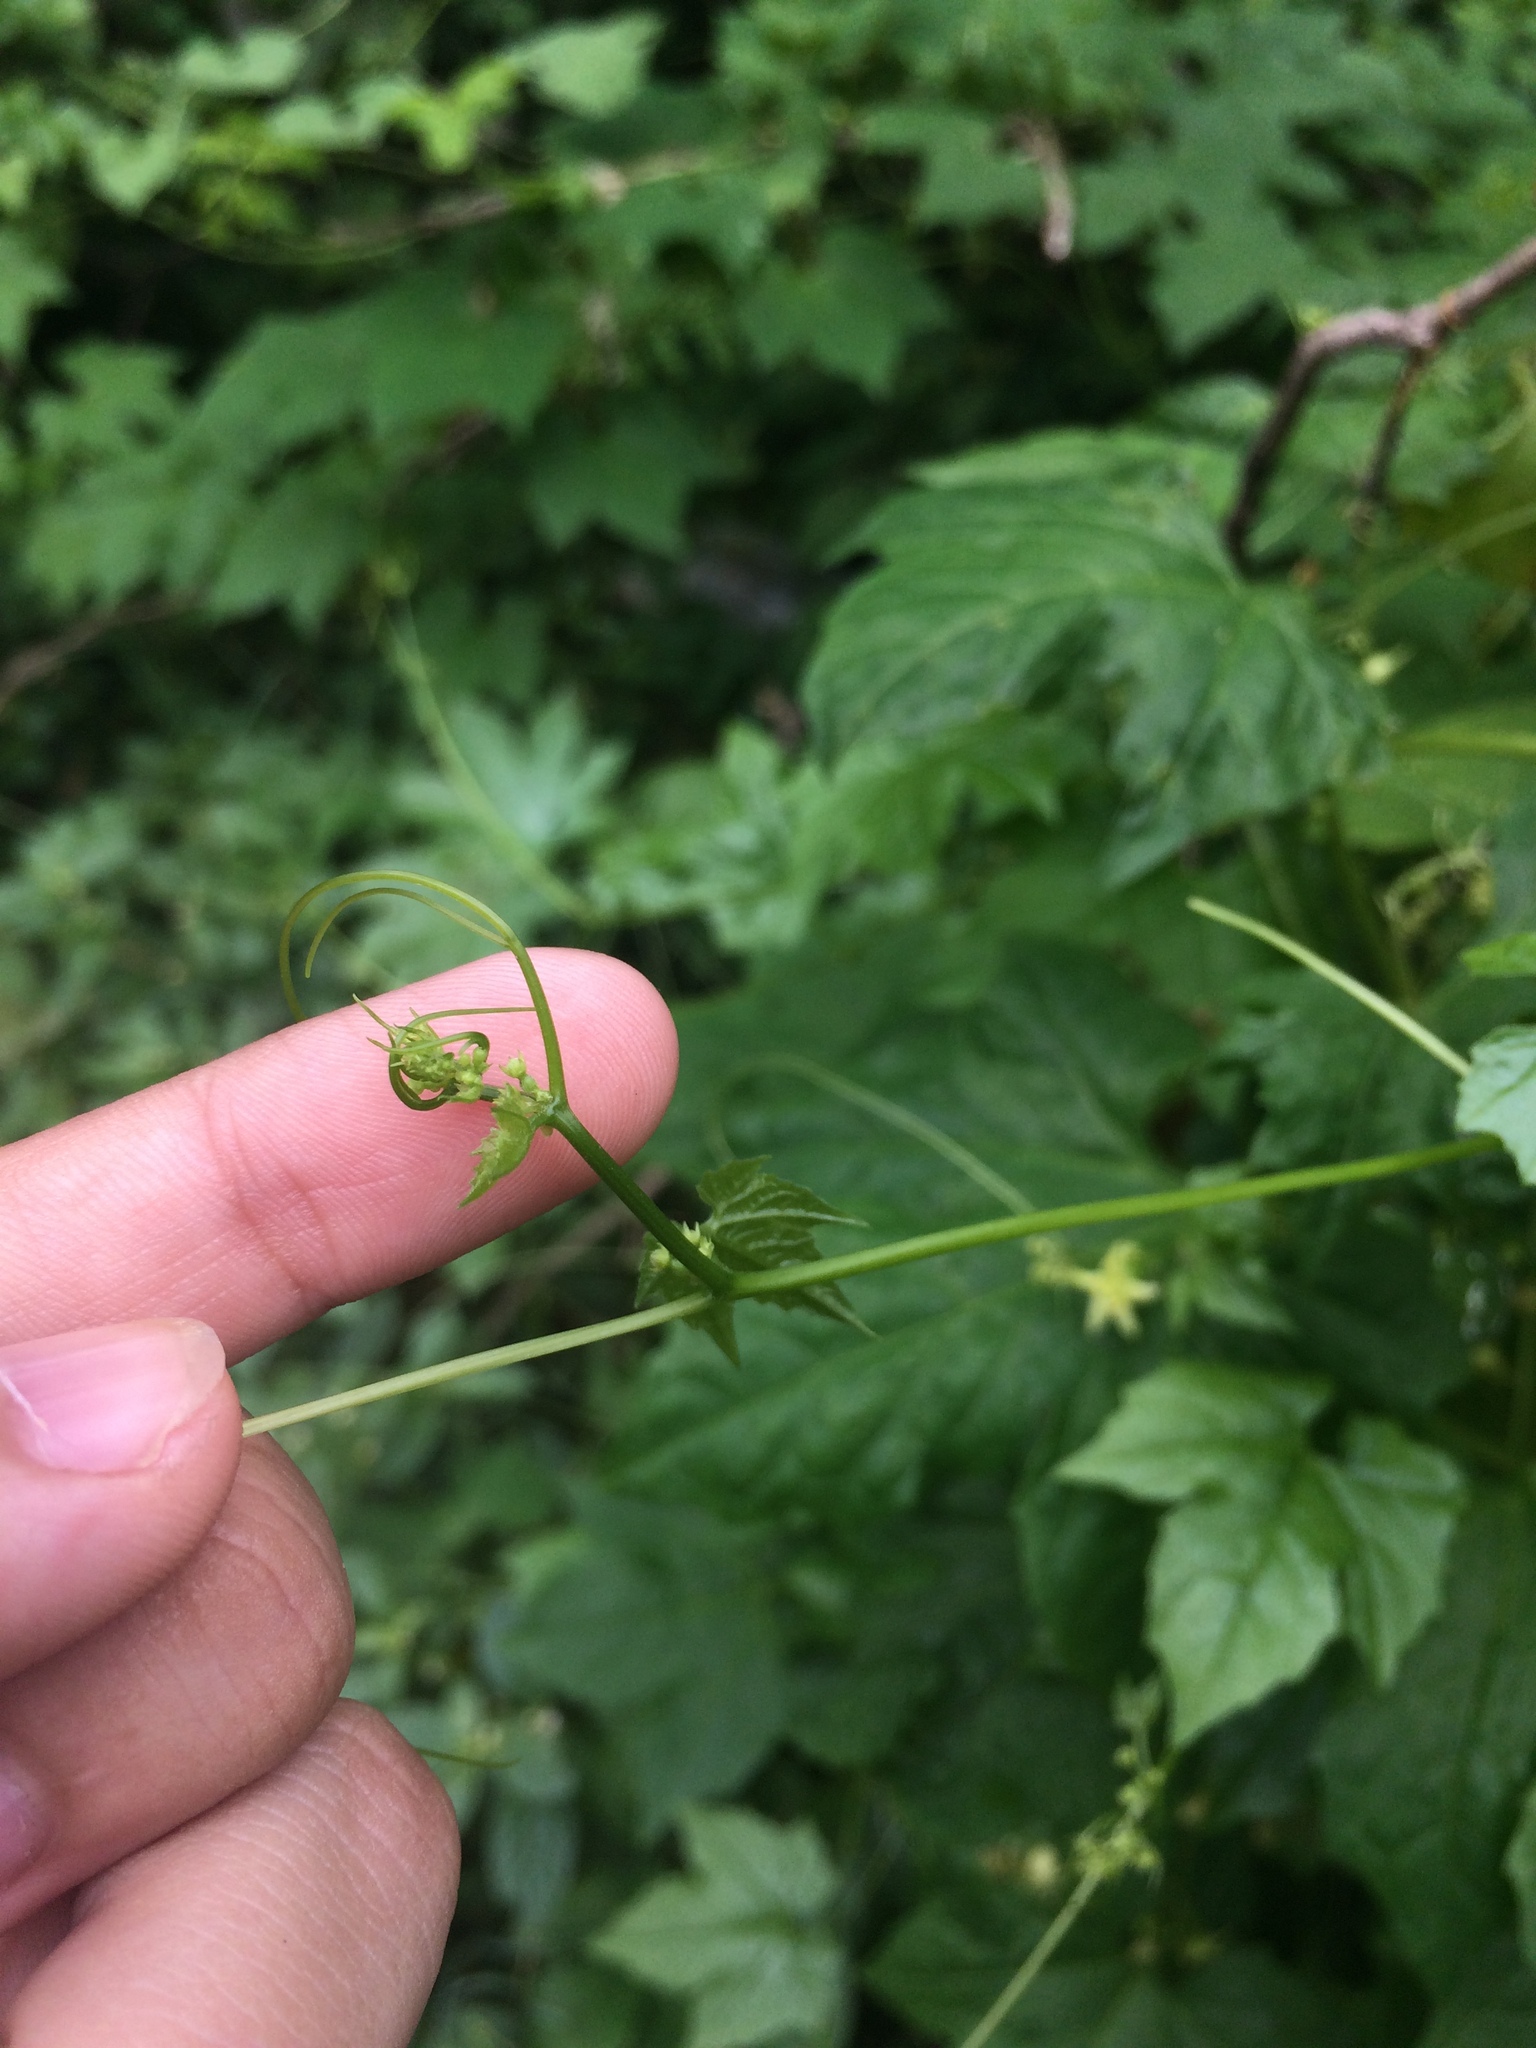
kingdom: Plantae
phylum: Tracheophyta
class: Magnoliopsida
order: Cucurbitales
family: Cucurbitaceae
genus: Diplocyclos
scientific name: Diplocyclos palmatus
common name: Striped-cucumber
